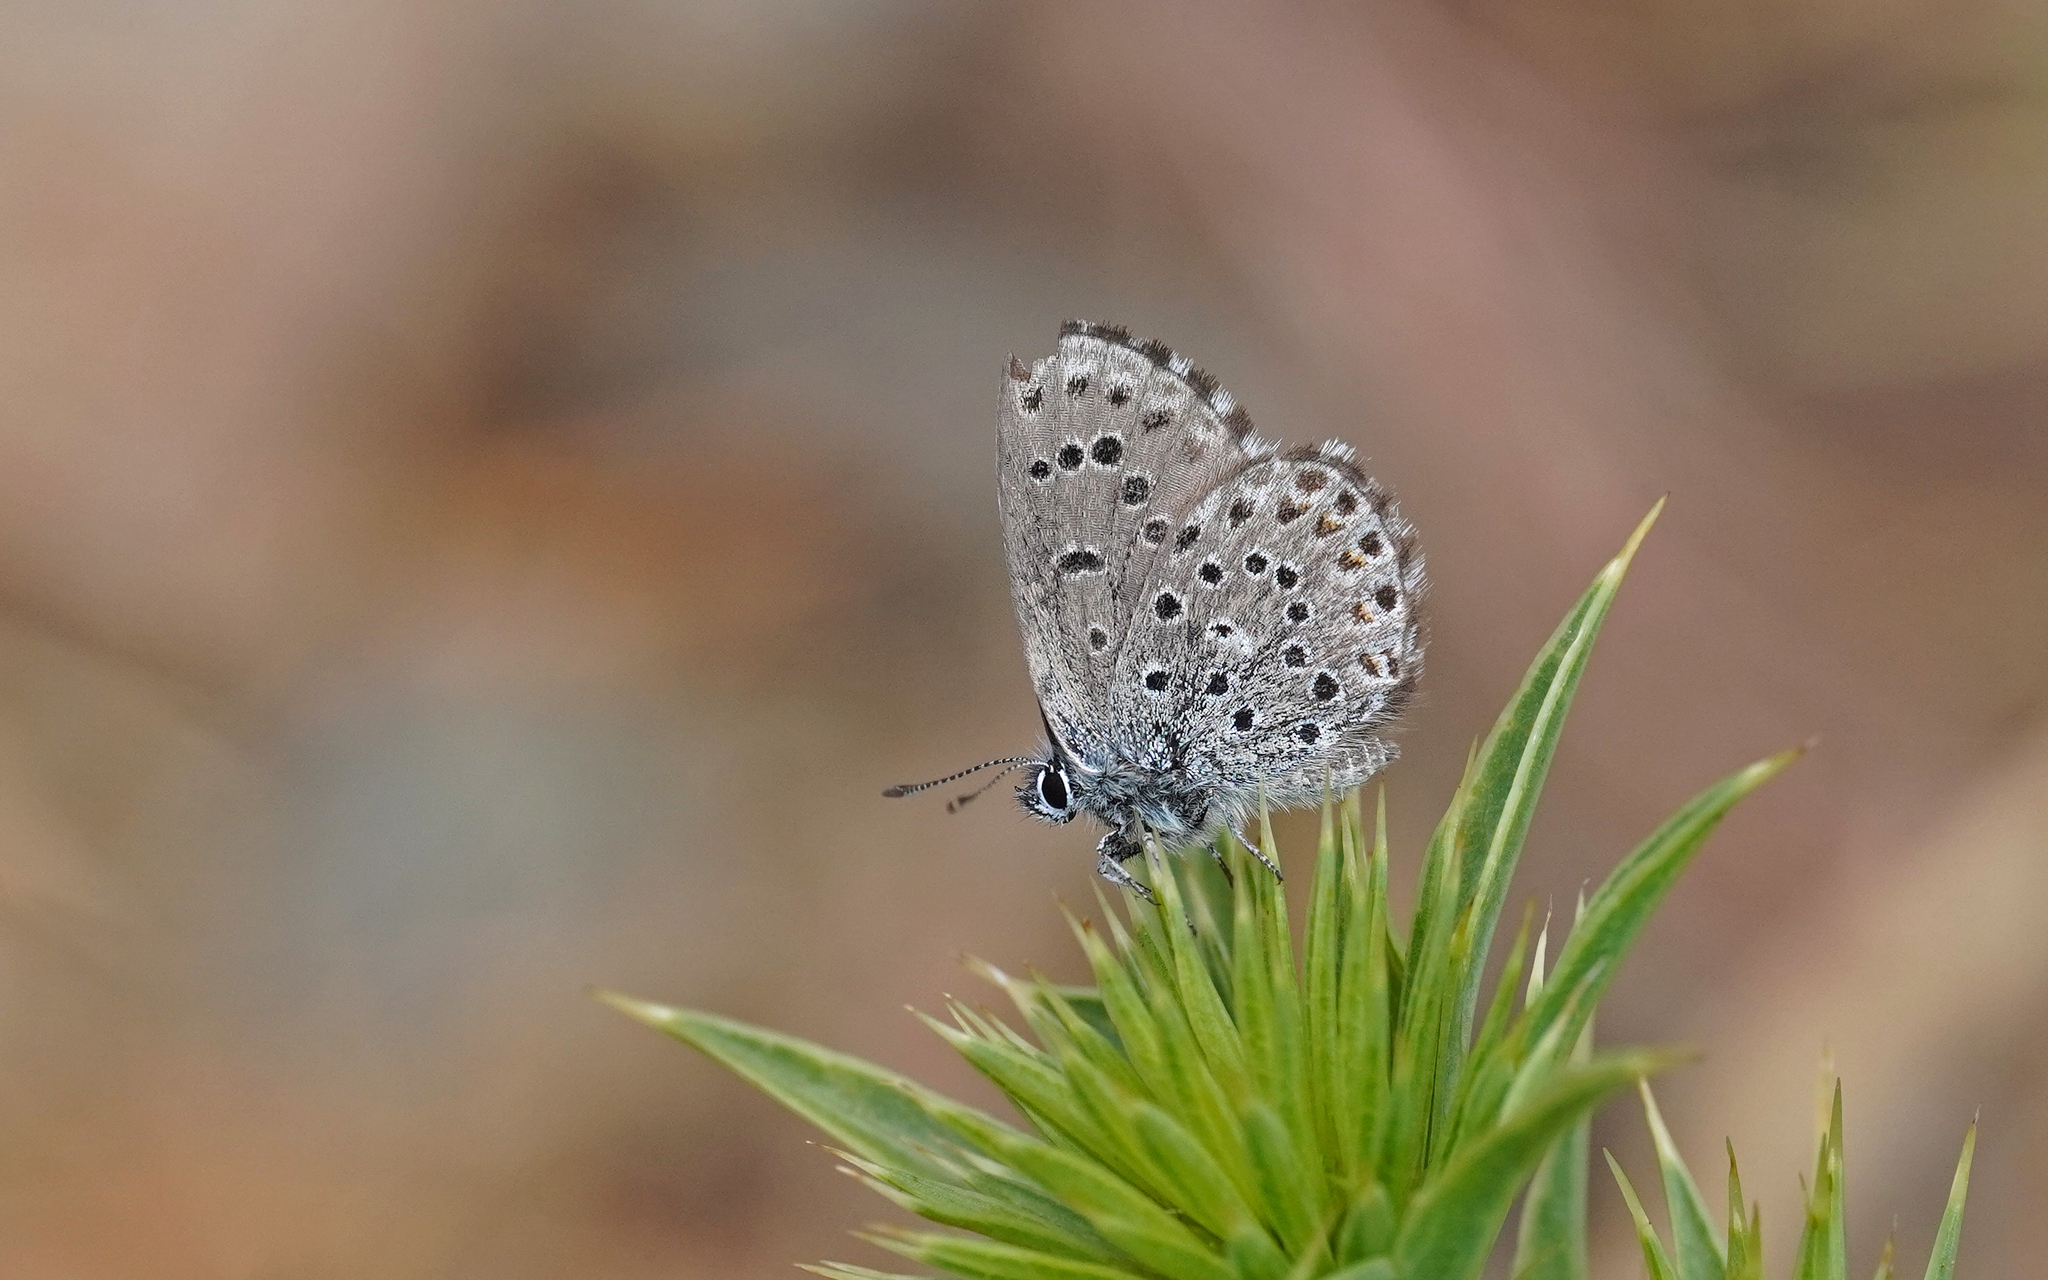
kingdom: Animalia
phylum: Arthropoda
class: Insecta
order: Lepidoptera
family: Lycaenidae
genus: Pseudophilotes
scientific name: Pseudophilotes barbagiae
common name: Sardinian blue
